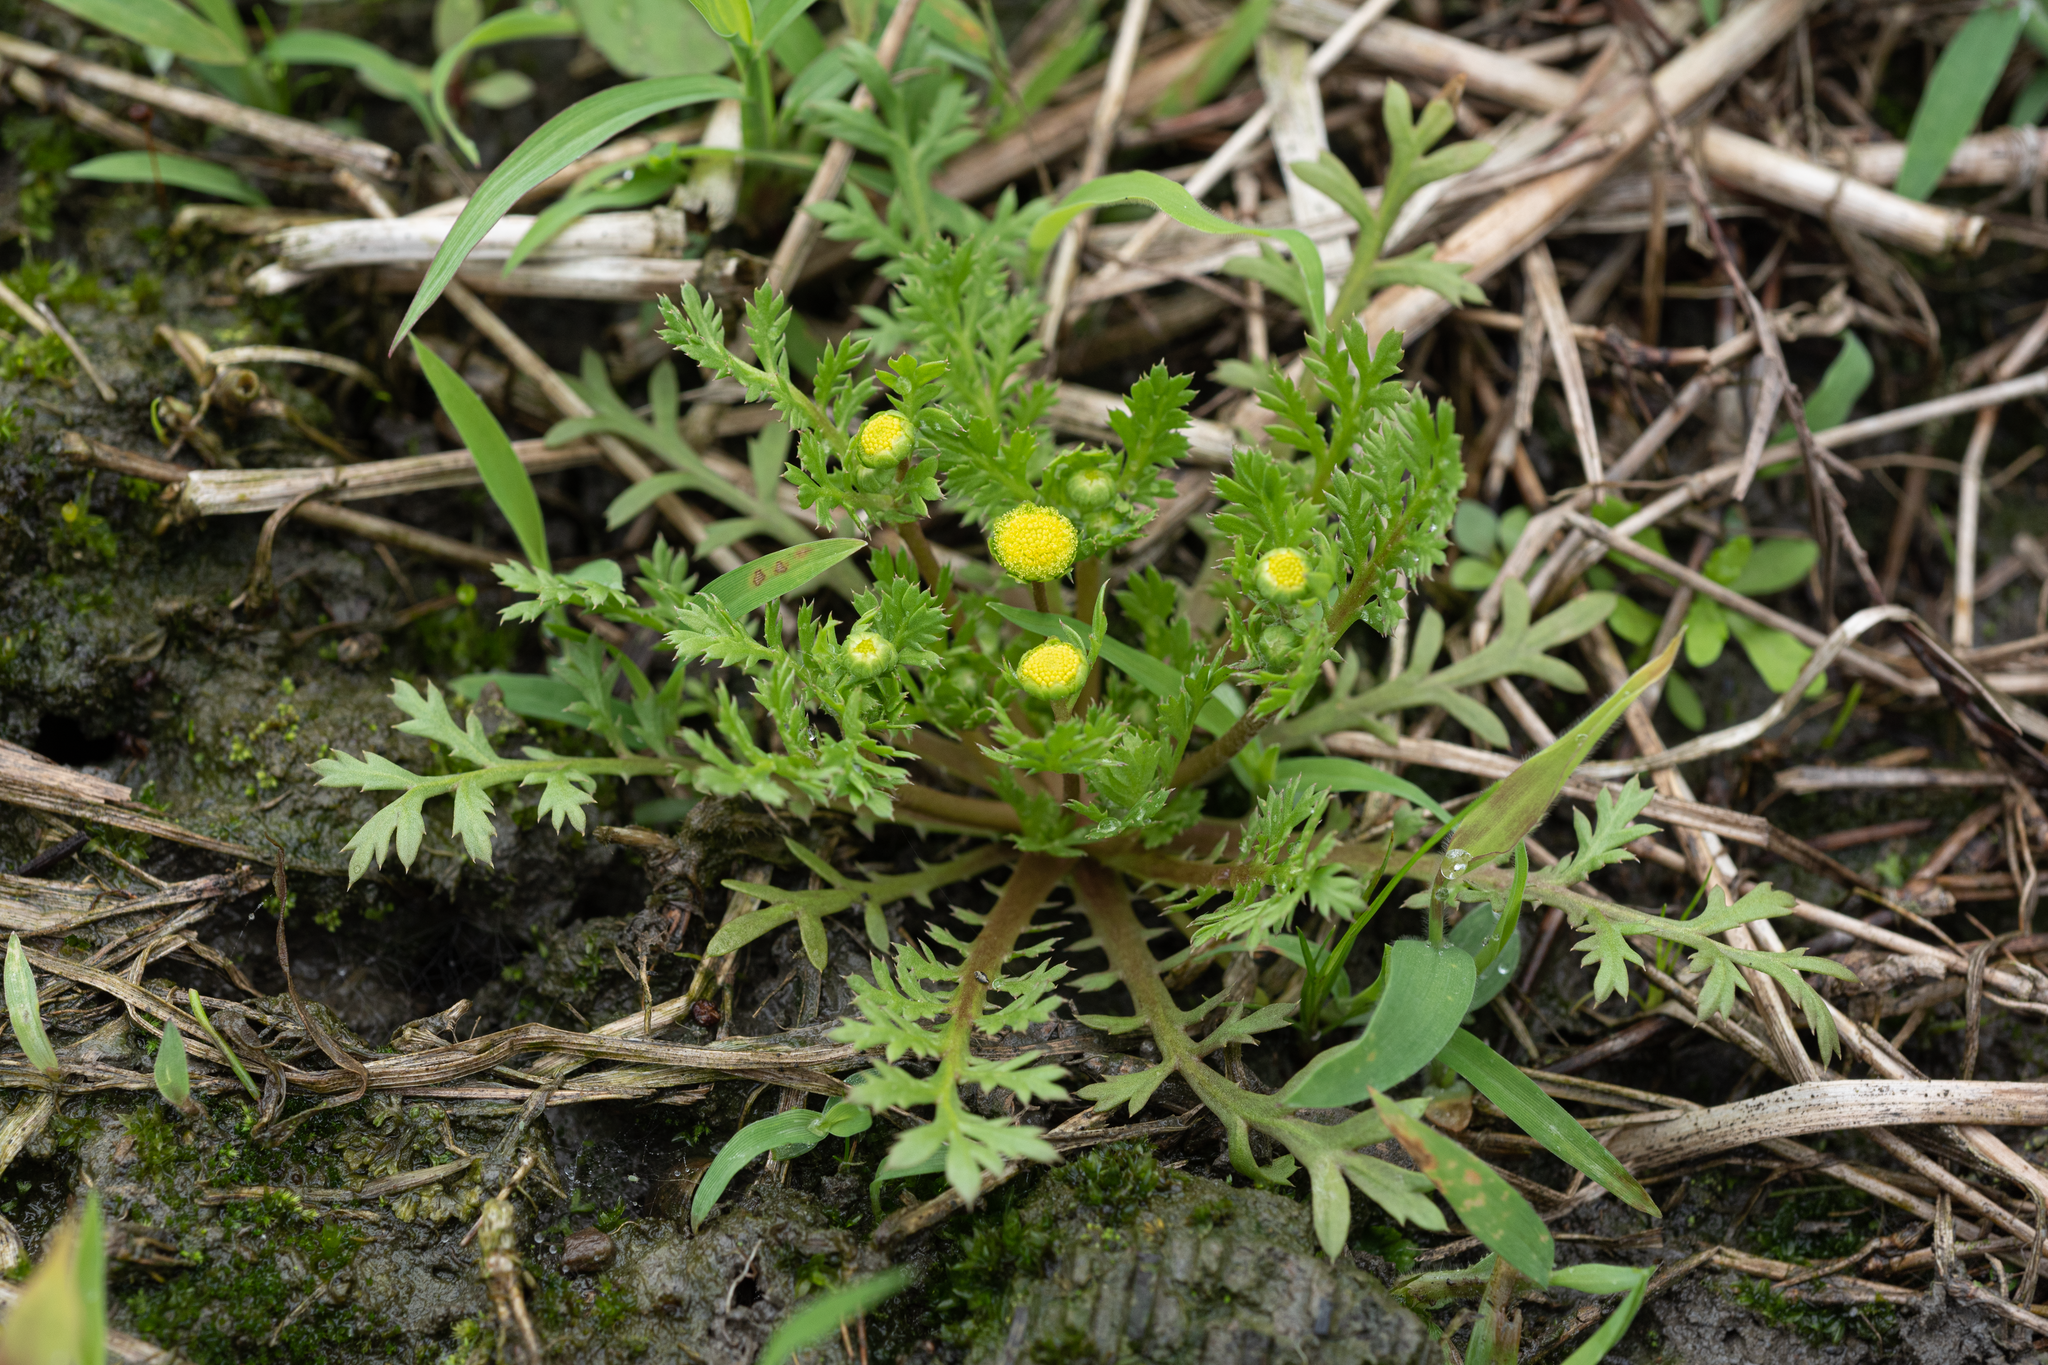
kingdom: Plantae
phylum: Tracheophyta
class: Magnoliopsida
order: Asterales
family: Asteraceae
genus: Cotula
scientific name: Cotula hemisphaerica
